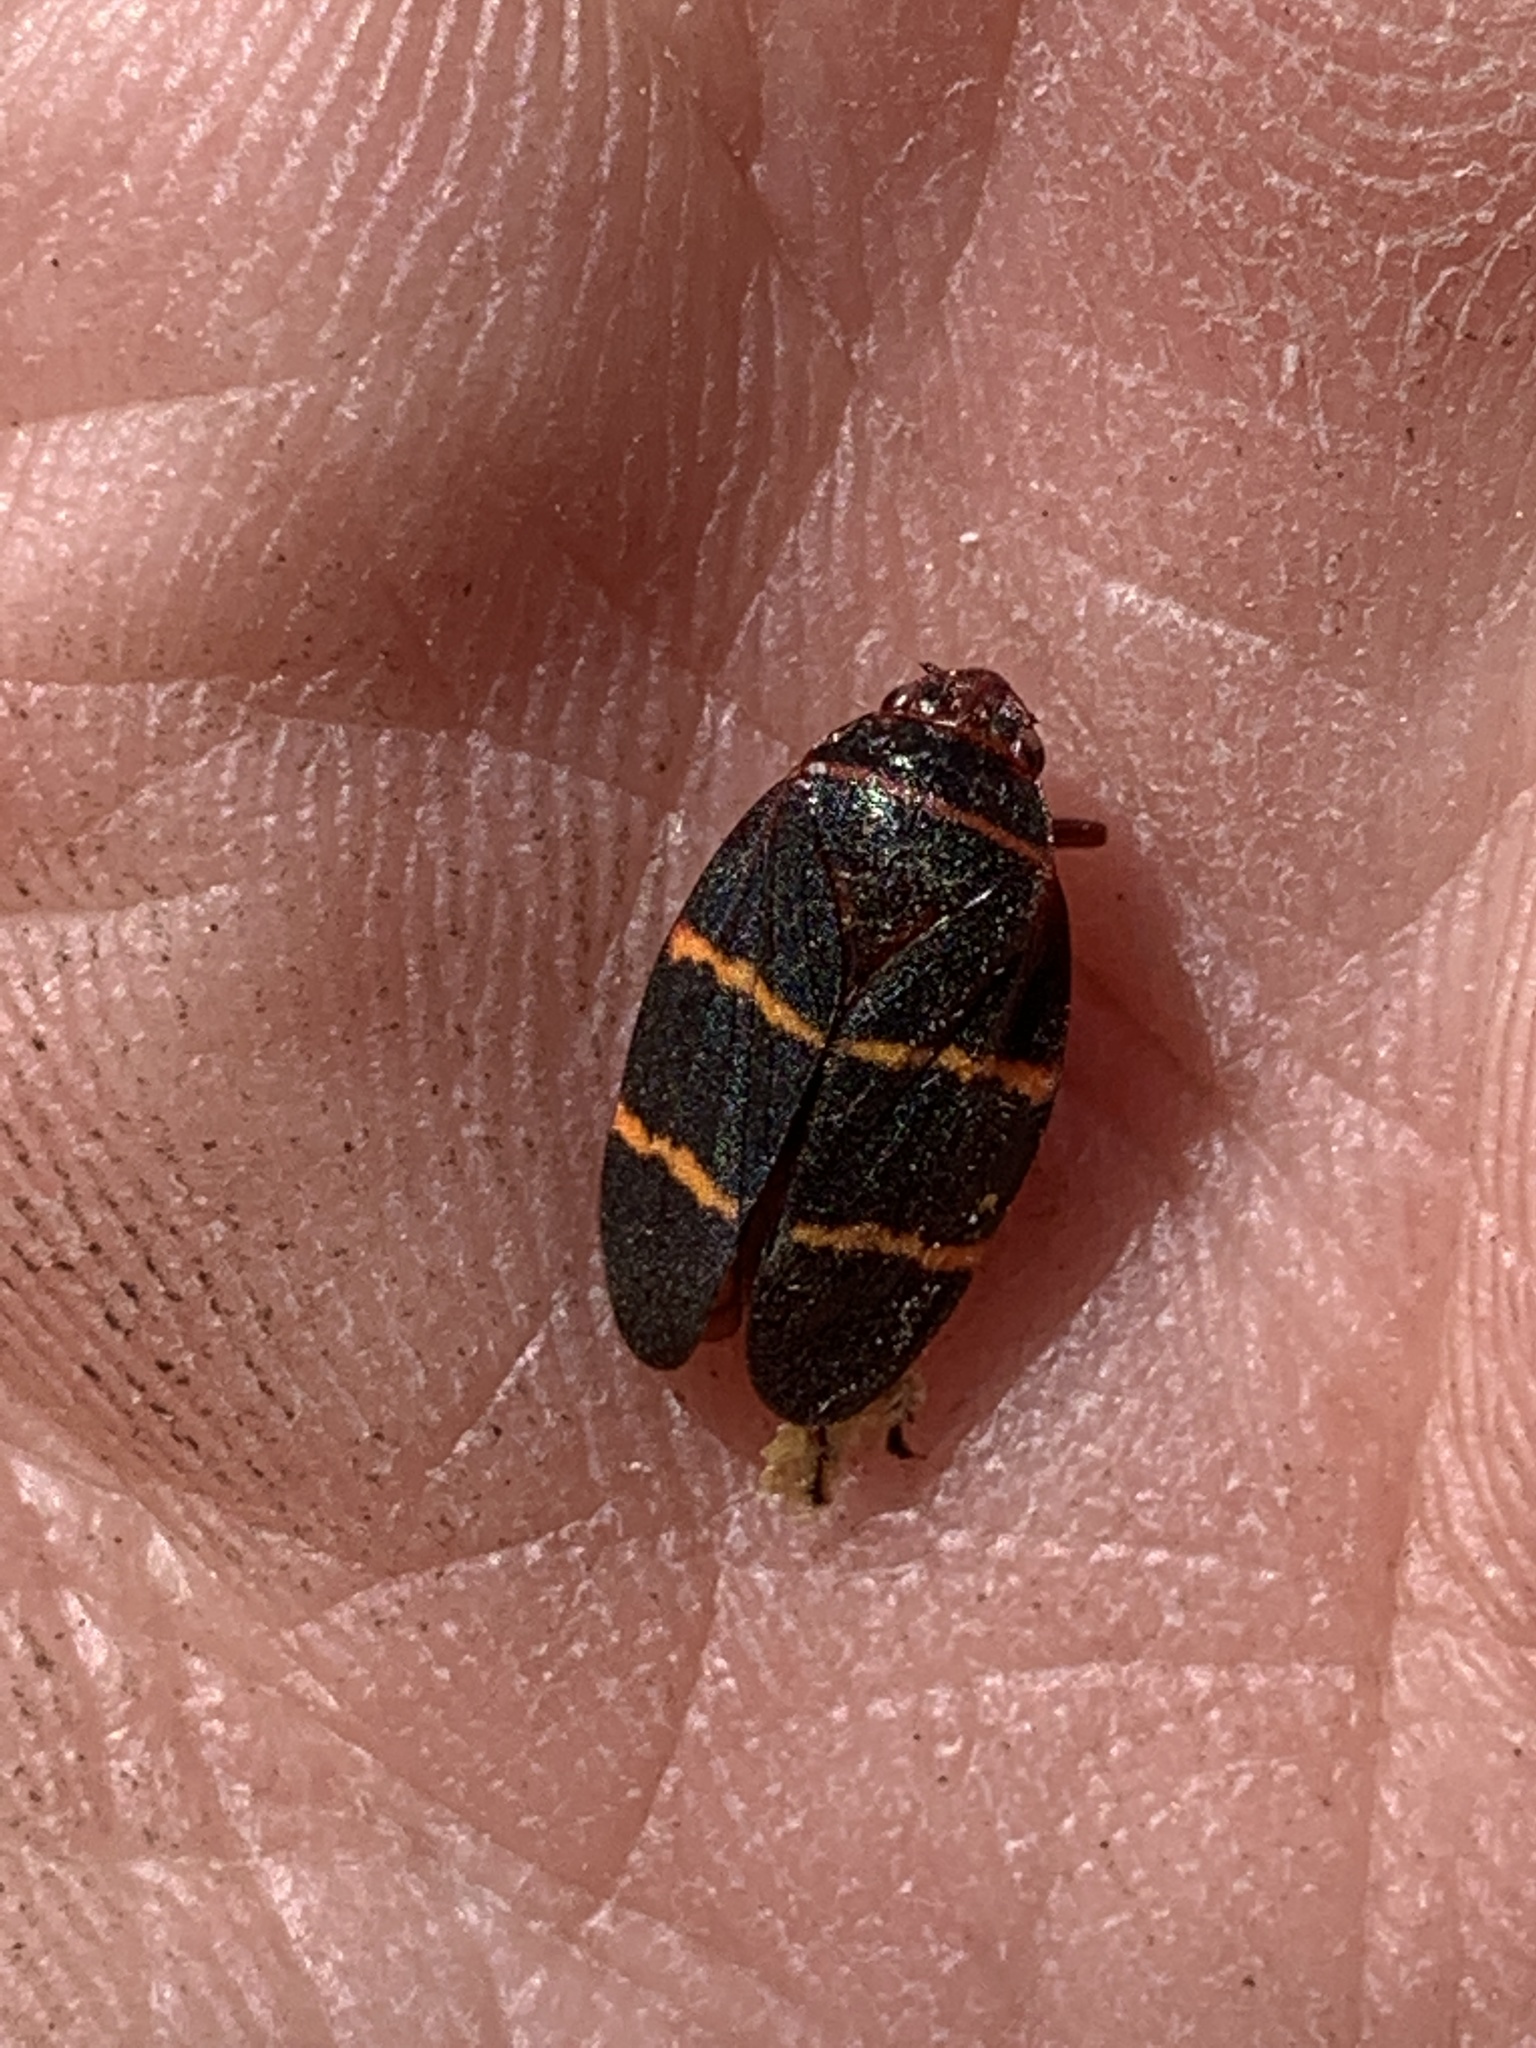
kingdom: Animalia
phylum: Arthropoda
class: Insecta
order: Hemiptera
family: Cercopidae
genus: Prosapia
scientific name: Prosapia bicincta
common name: Twolined spittlebug
